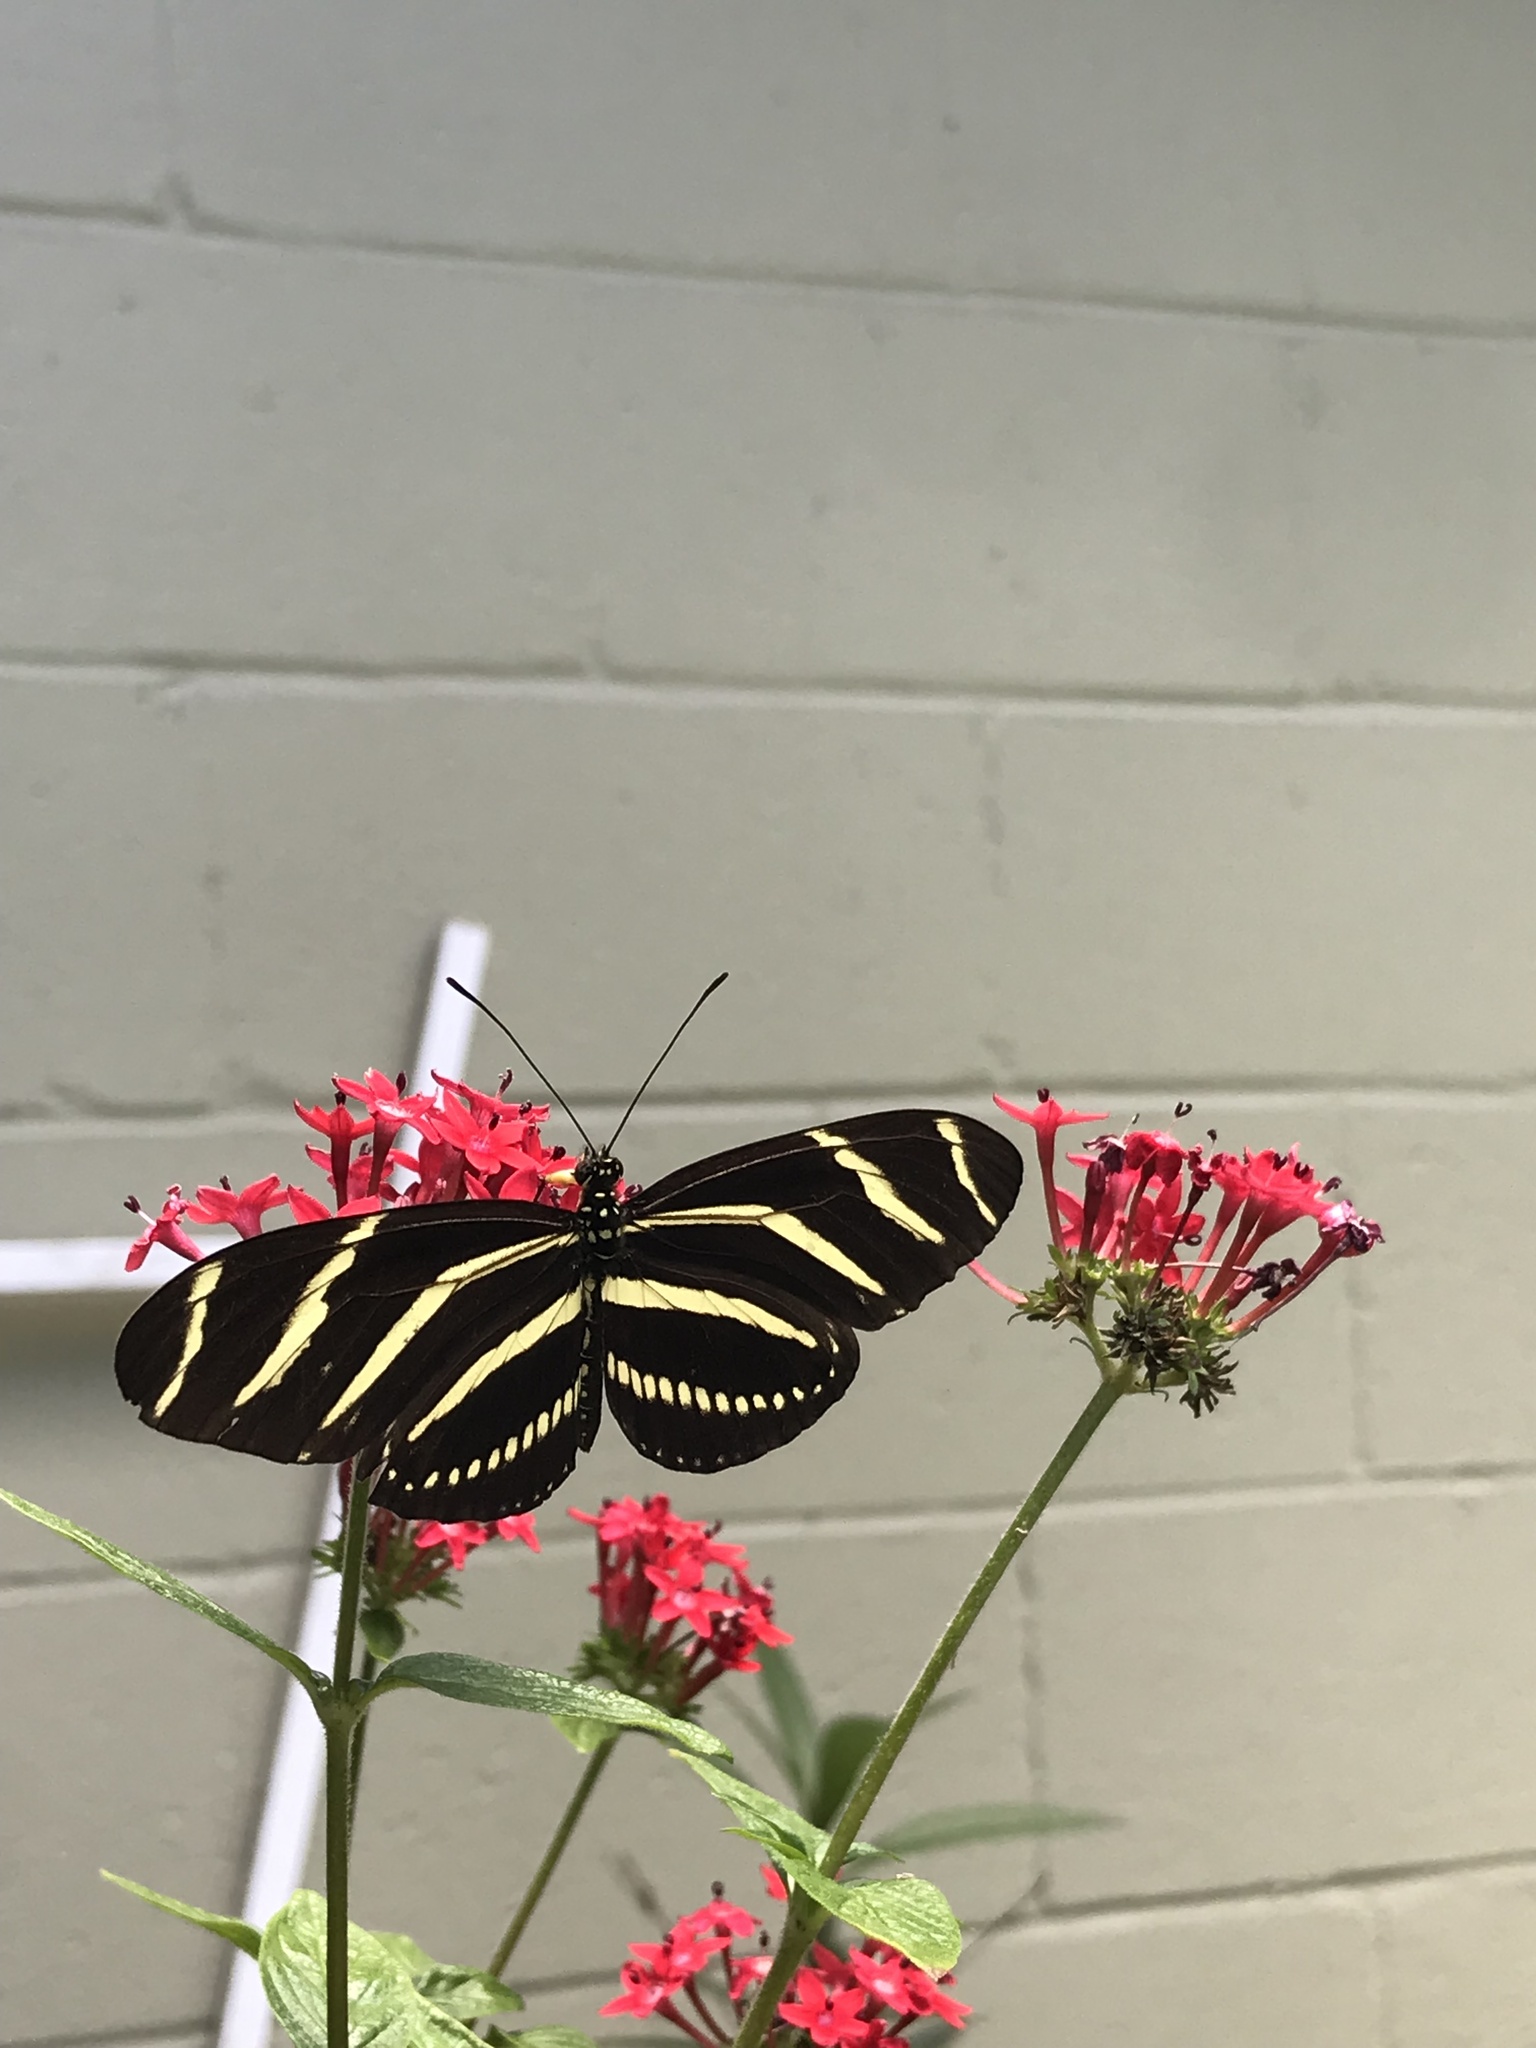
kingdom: Animalia
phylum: Arthropoda
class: Insecta
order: Lepidoptera
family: Nymphalidae
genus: Heliconius
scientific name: Heliconius charithonia
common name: Zebra long wing
